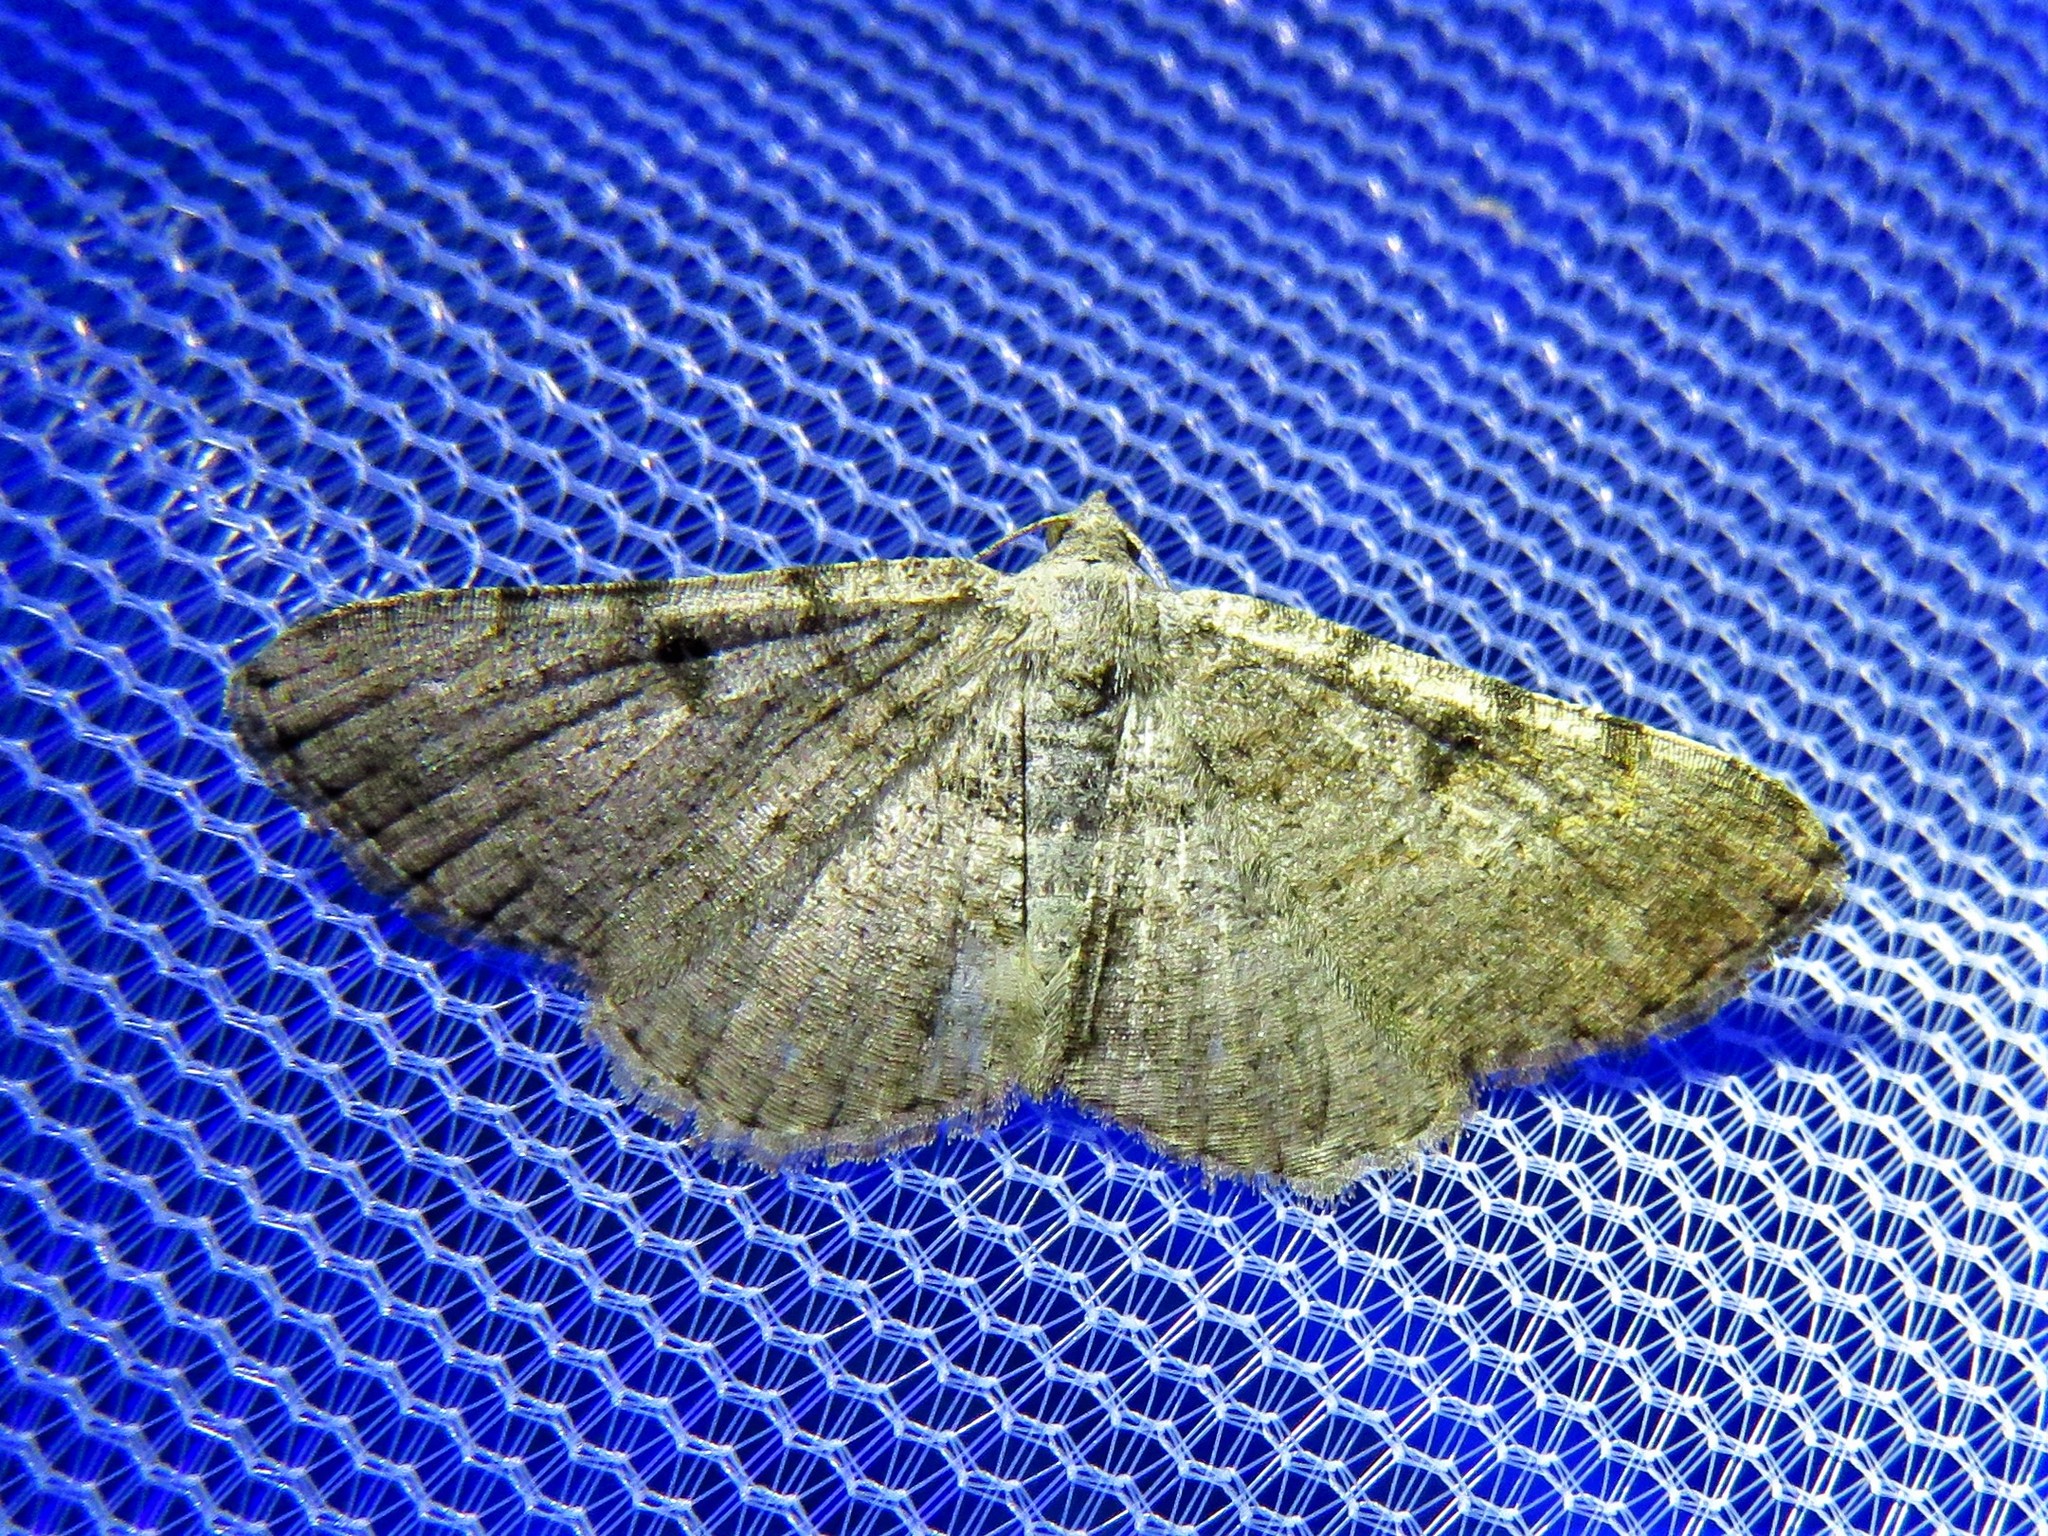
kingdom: Animalia
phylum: Arthropoda
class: Insecta
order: Lepidoptera
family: Geometridae
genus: Digrammia
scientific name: Digrammia gnophosaria
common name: Hollow-spotted angle
